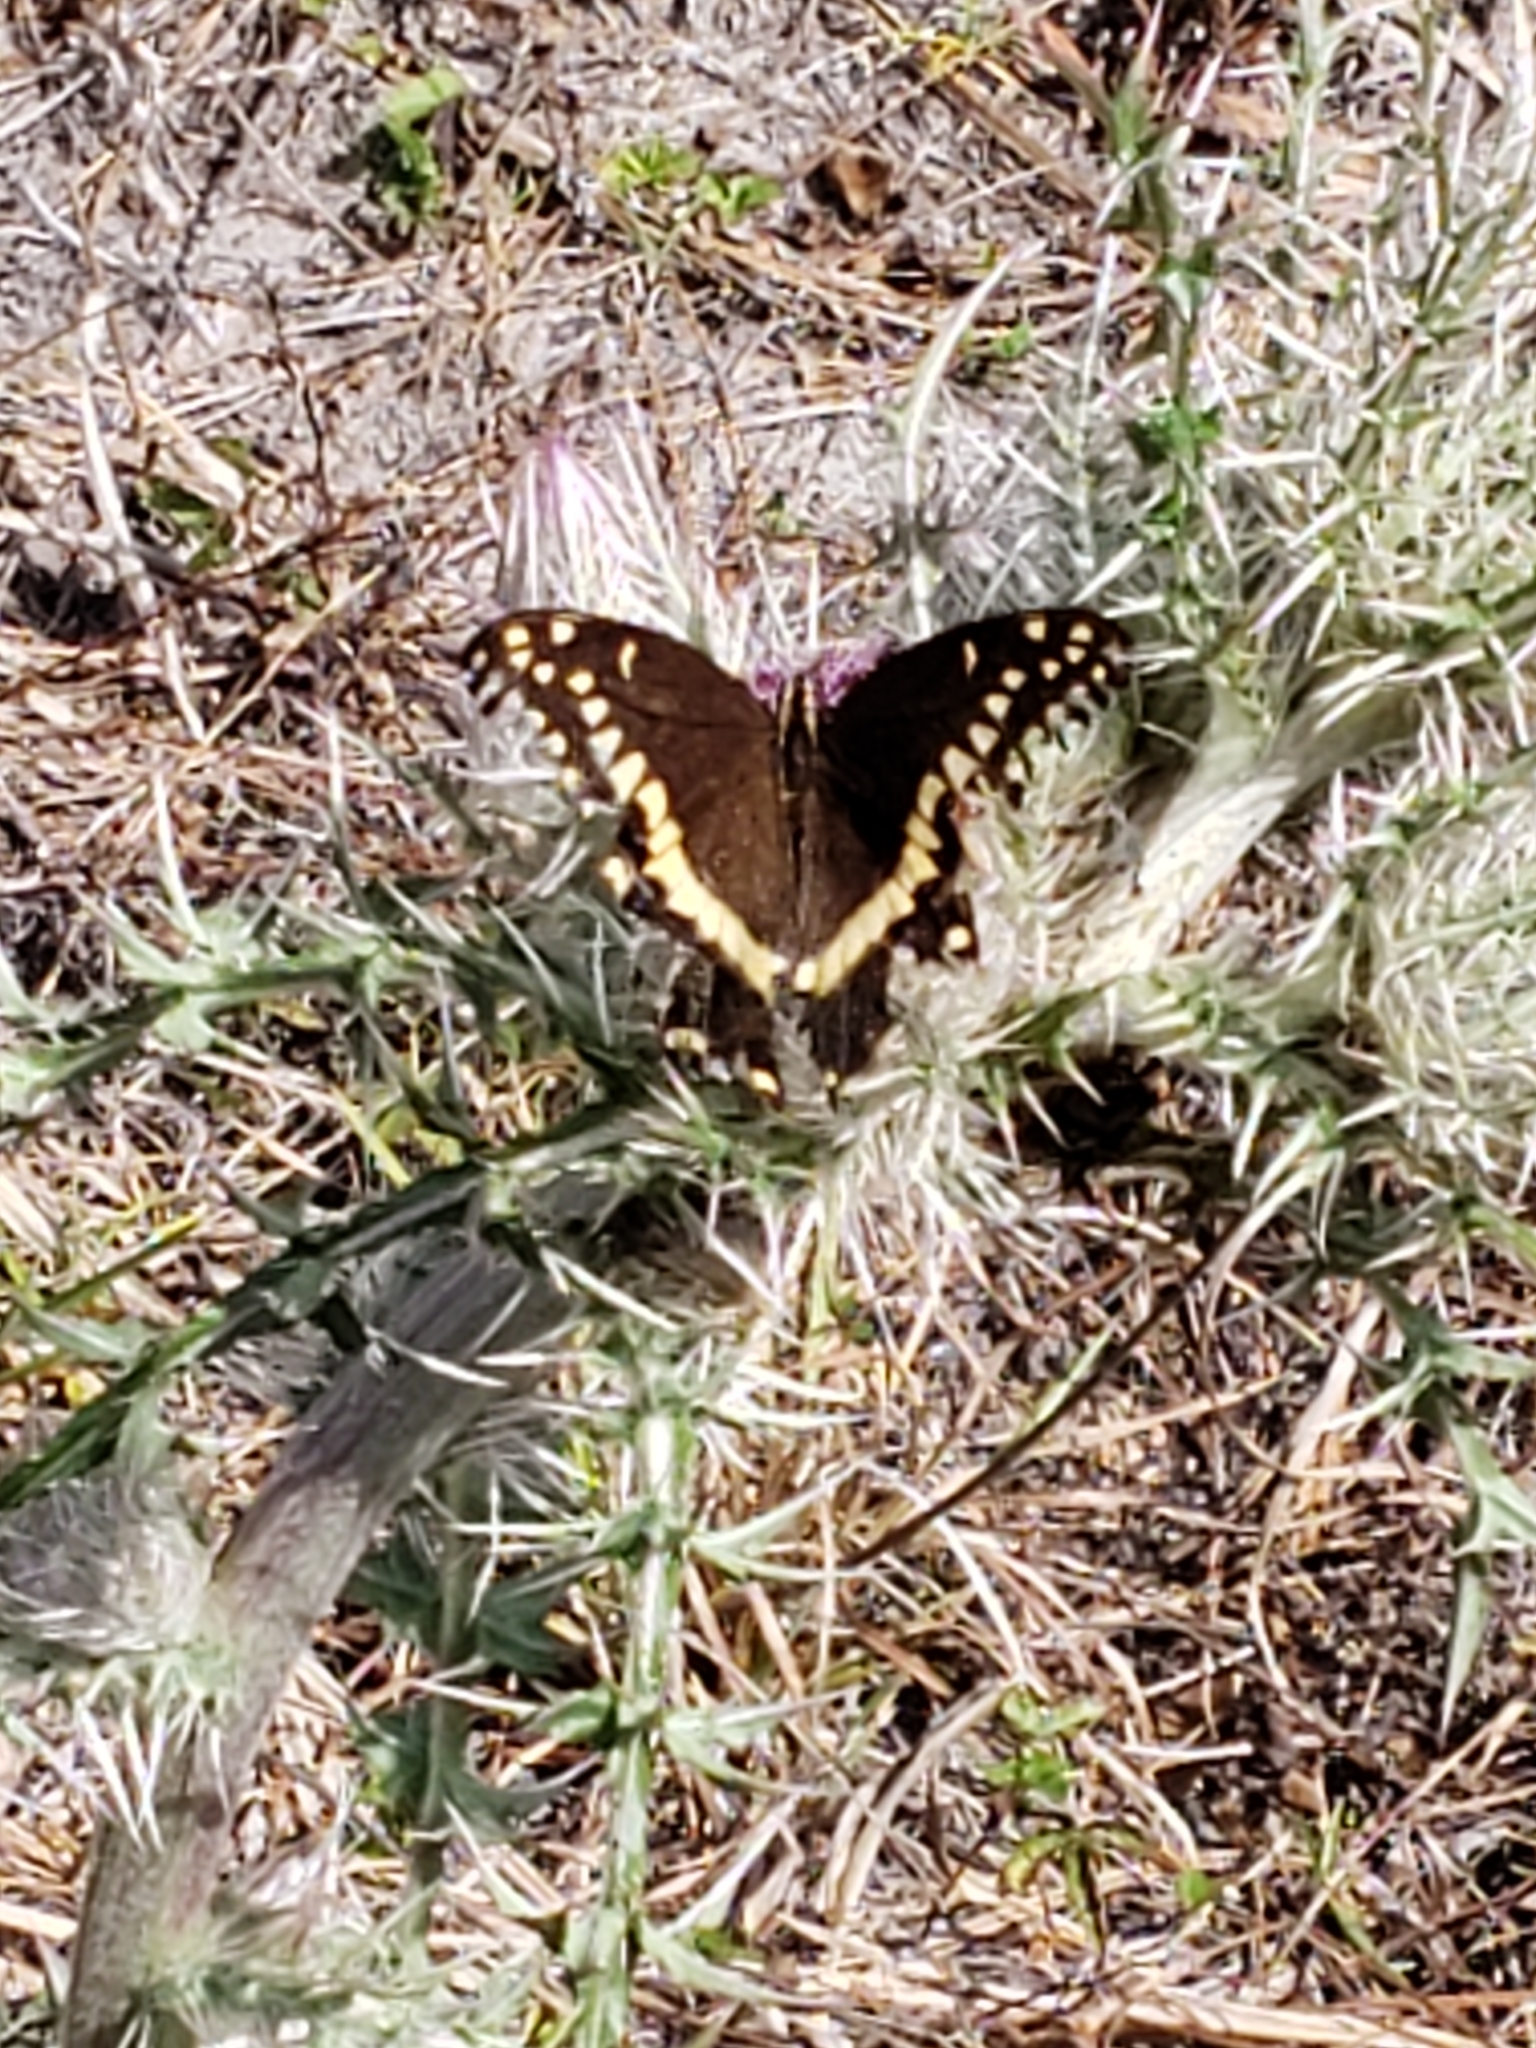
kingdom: Animalia
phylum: Arthropoda
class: Insecta
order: Lepidoptera
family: Papilionidae
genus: Papilio
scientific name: Papilio palamedes
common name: Palamedes swallowtail
